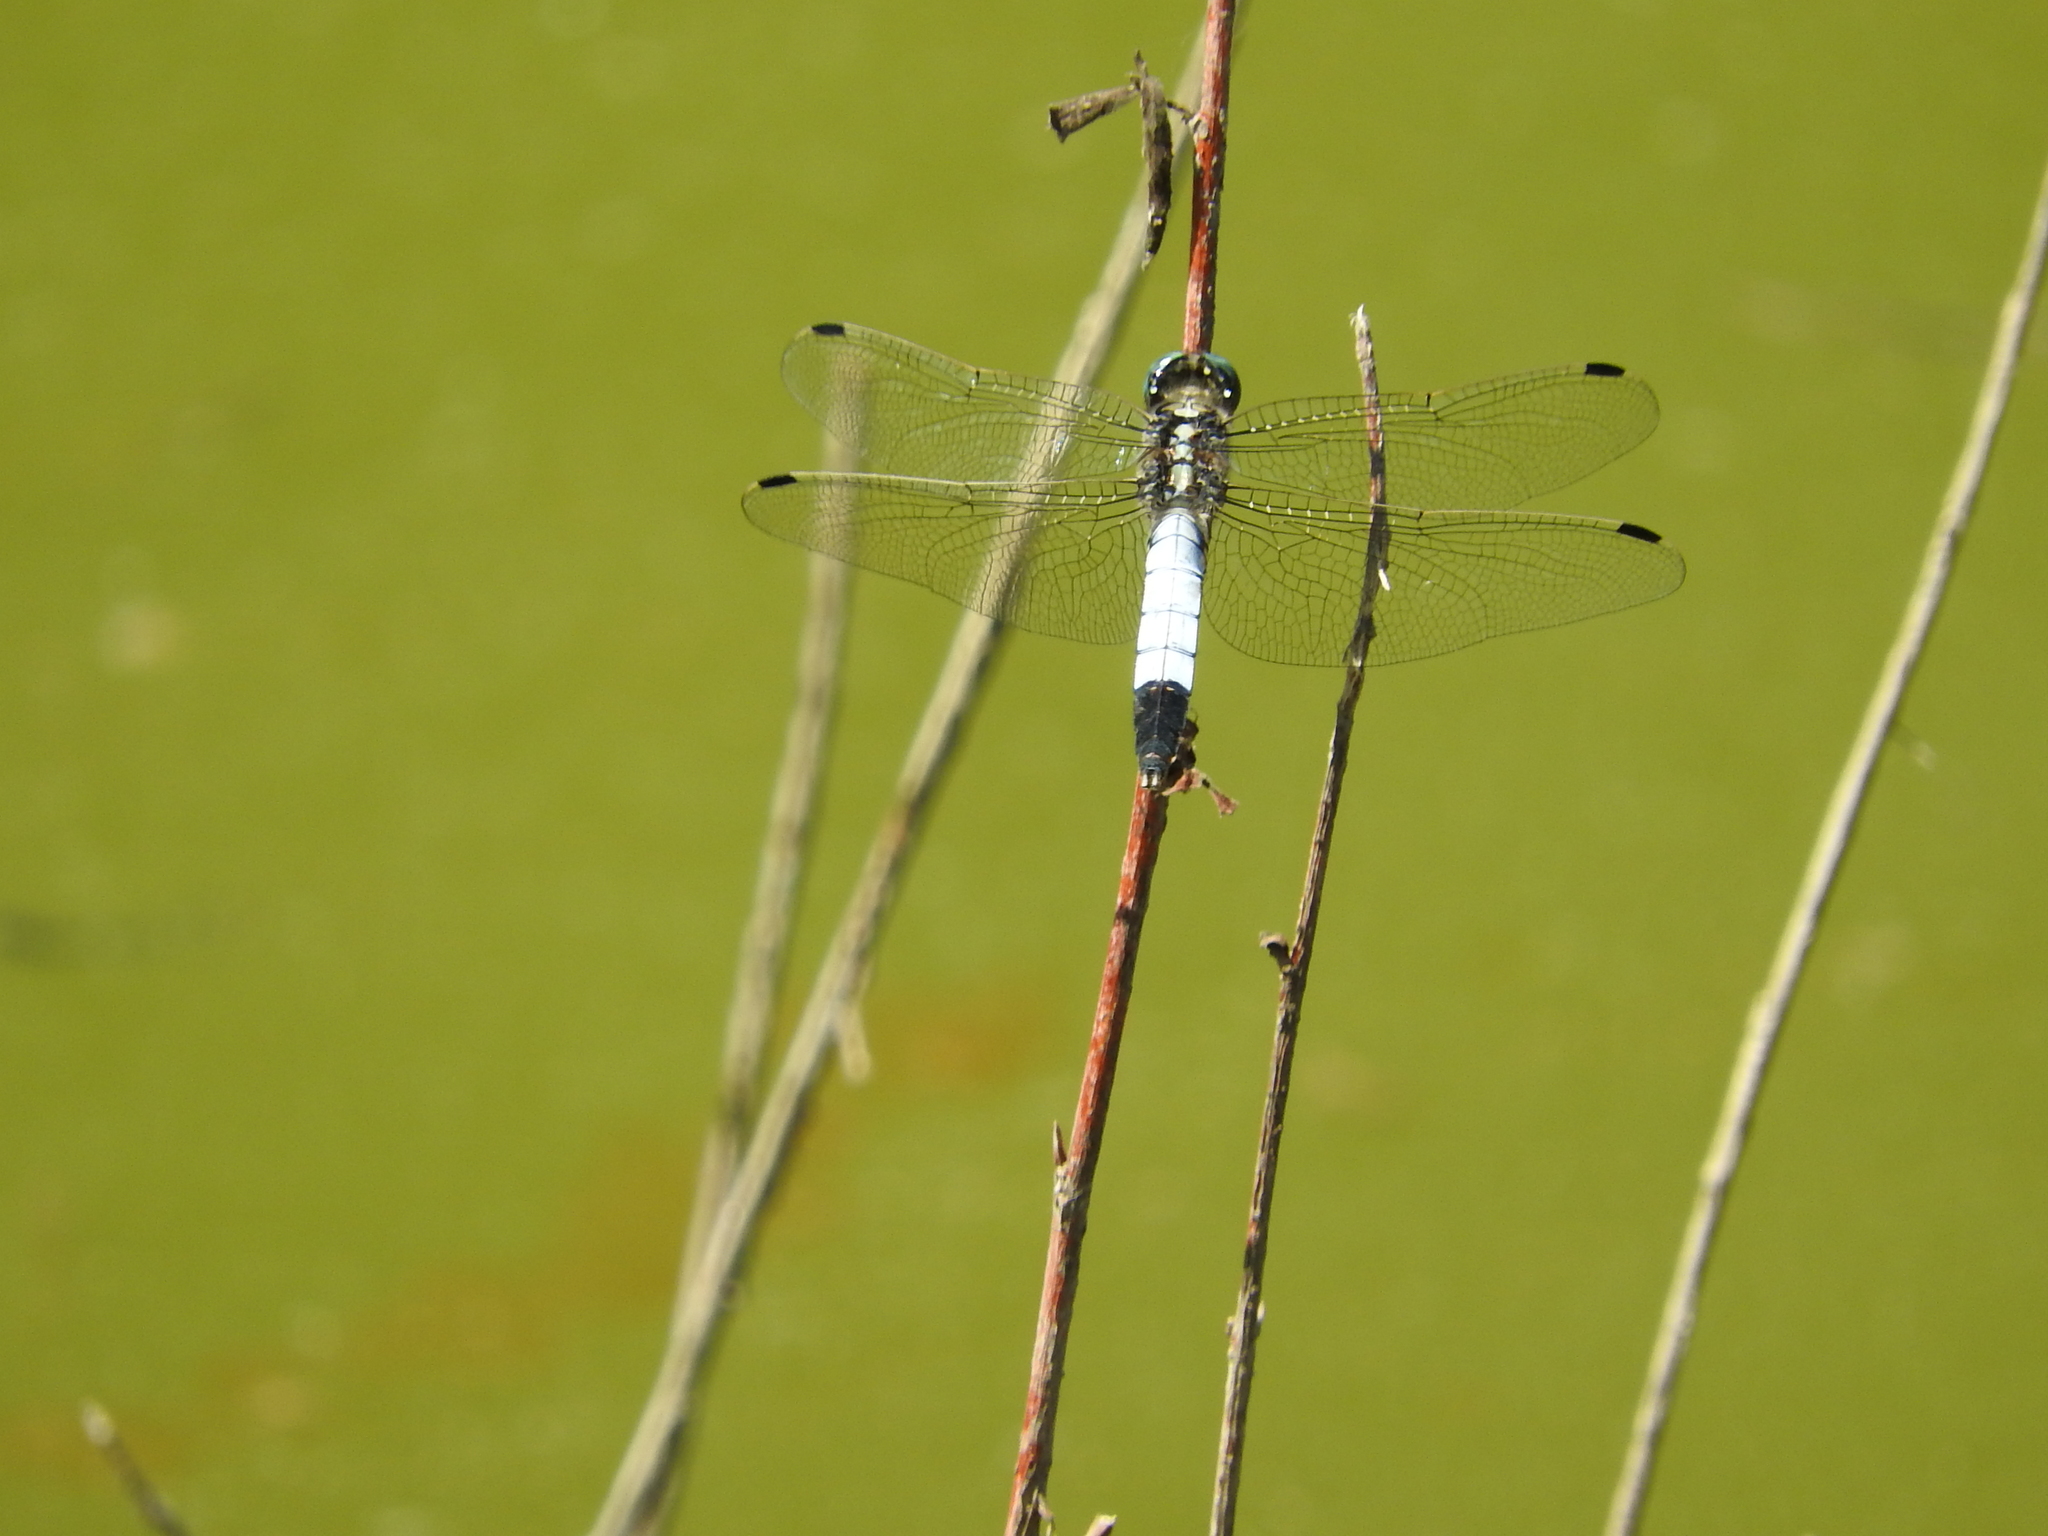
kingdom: Animalia
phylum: Arthropoda
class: Insecta
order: Odonata
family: Libellulidae
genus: Orthetrum
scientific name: Orthetrum albistylum
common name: White-tailed skimmer
